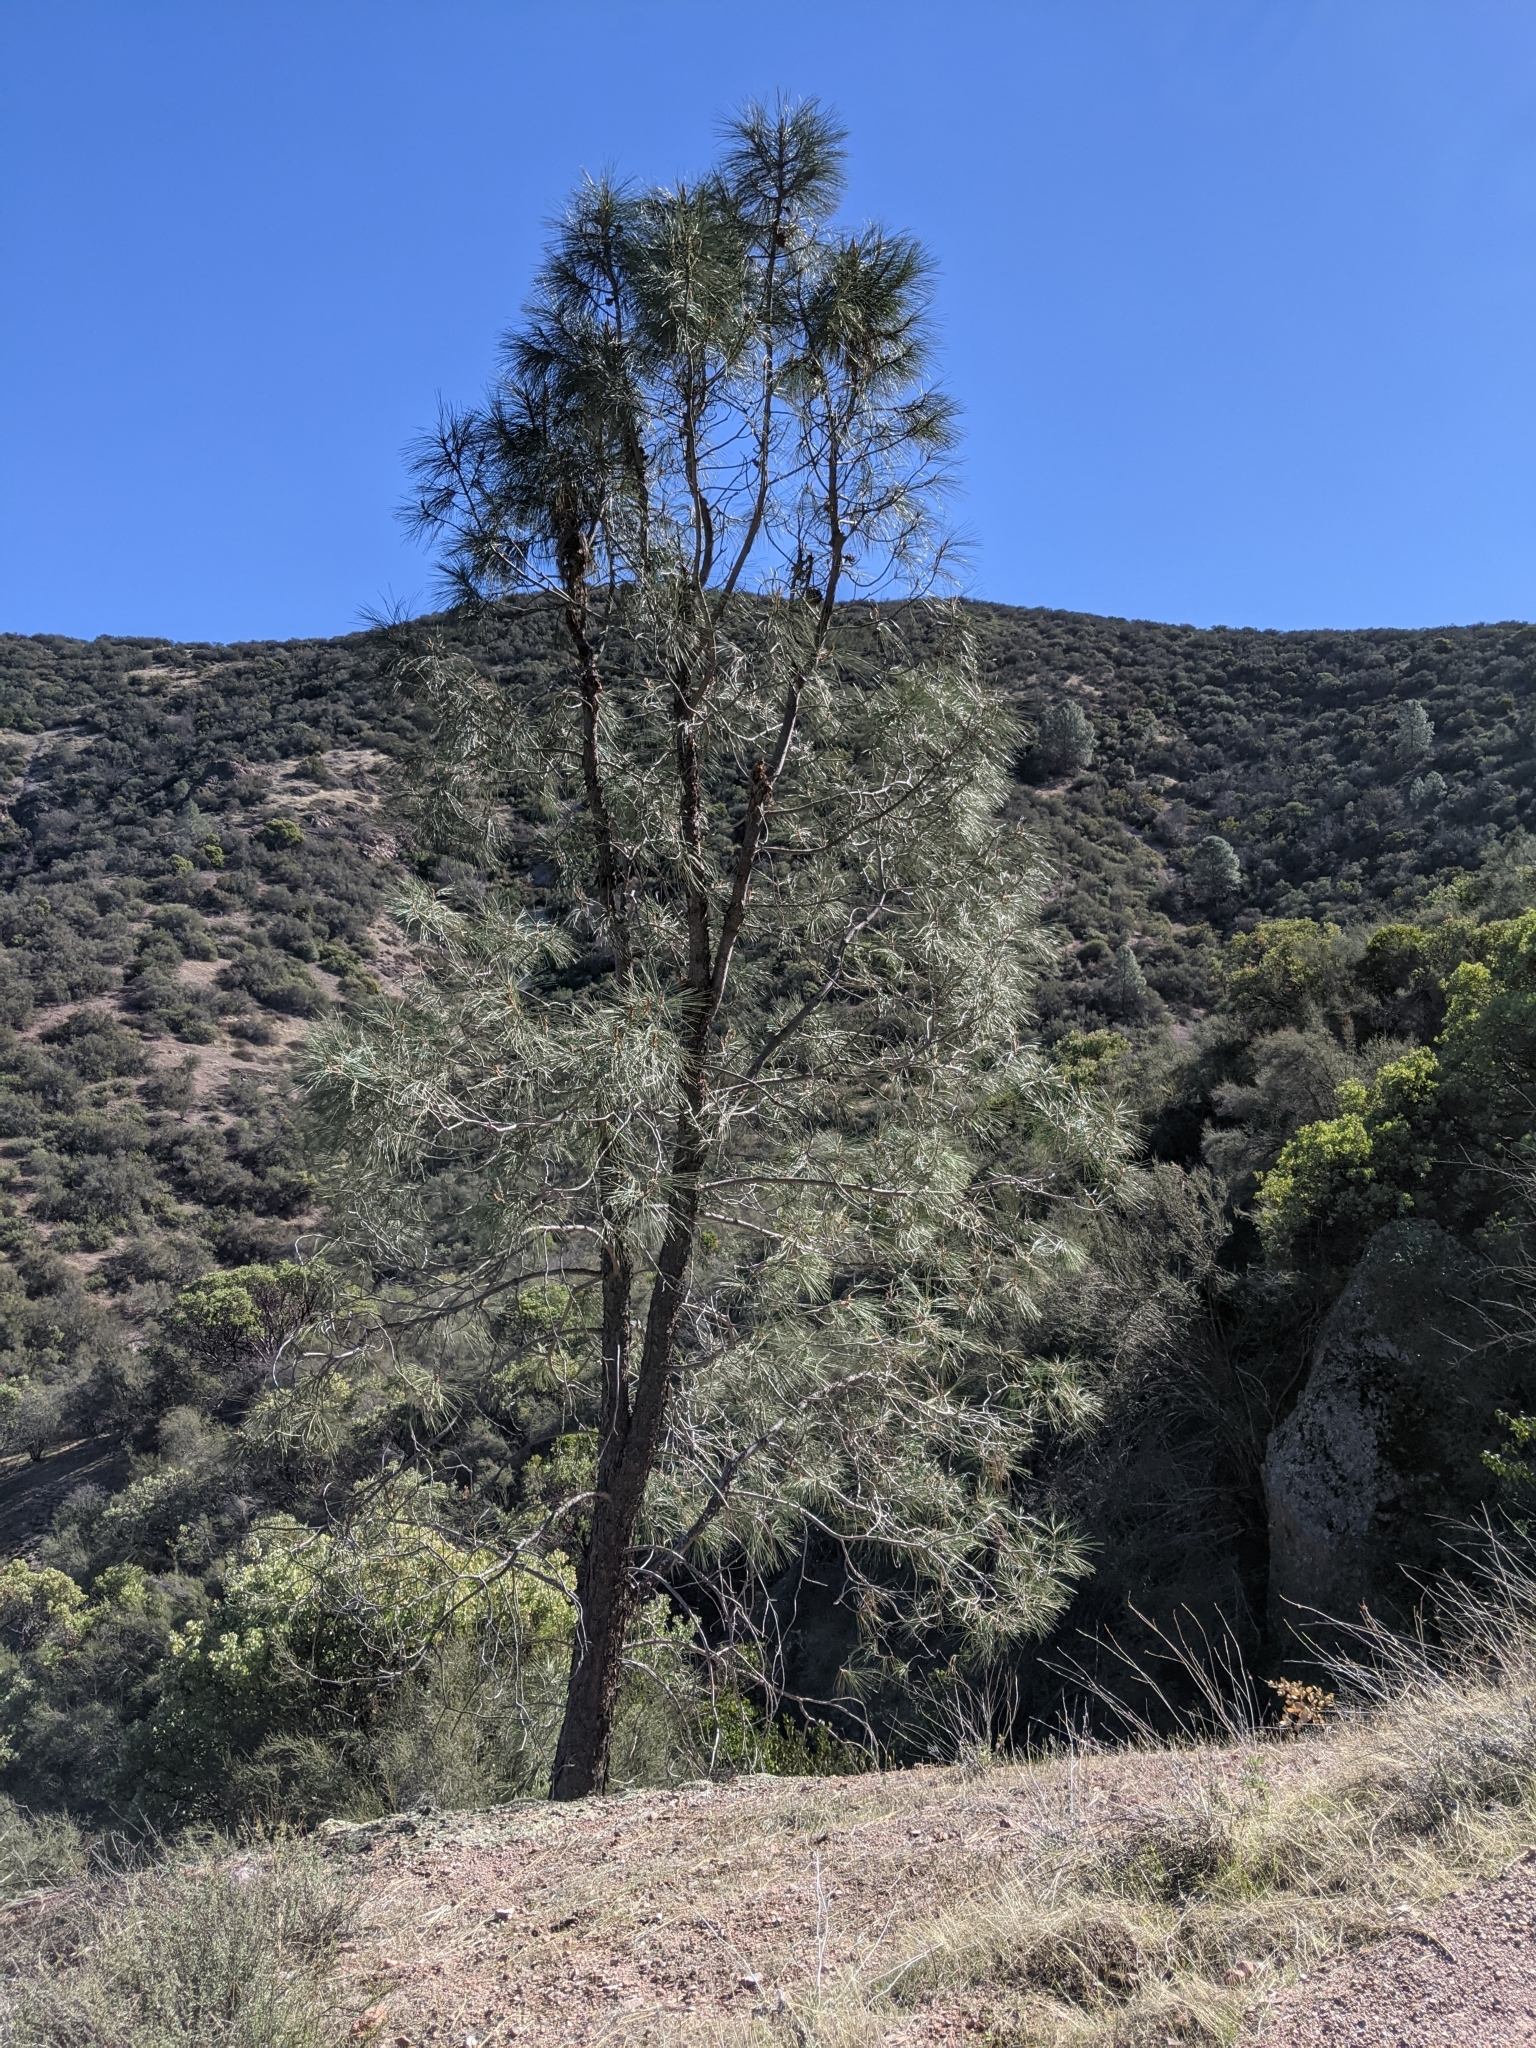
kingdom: Plantae
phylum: Tracheophyta
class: Pinopsida
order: Pinales
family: Pinaceae
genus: Pinus
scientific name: Pinus sabiniana
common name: Bull pine
